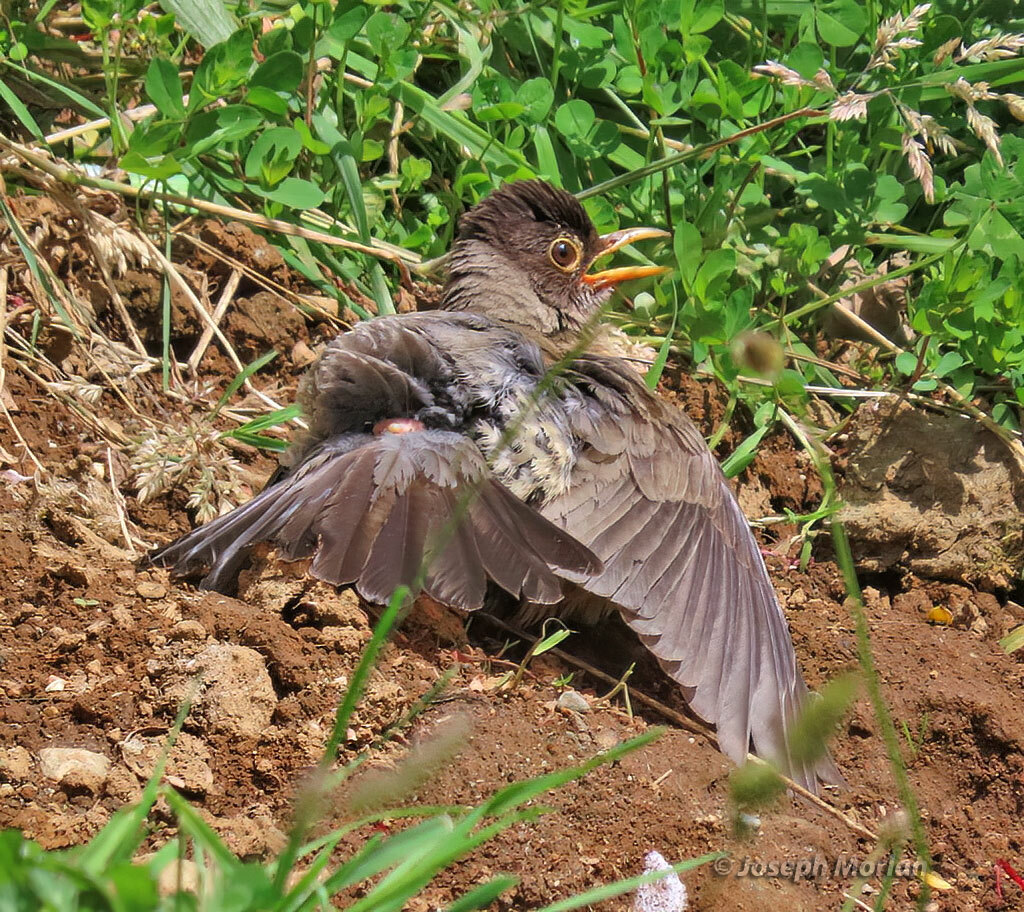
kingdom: Animalia
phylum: Chordata
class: Aves
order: Passeriformes
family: Turdidae
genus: Turdus
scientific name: Turdus falcklandii
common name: Austral thrush
